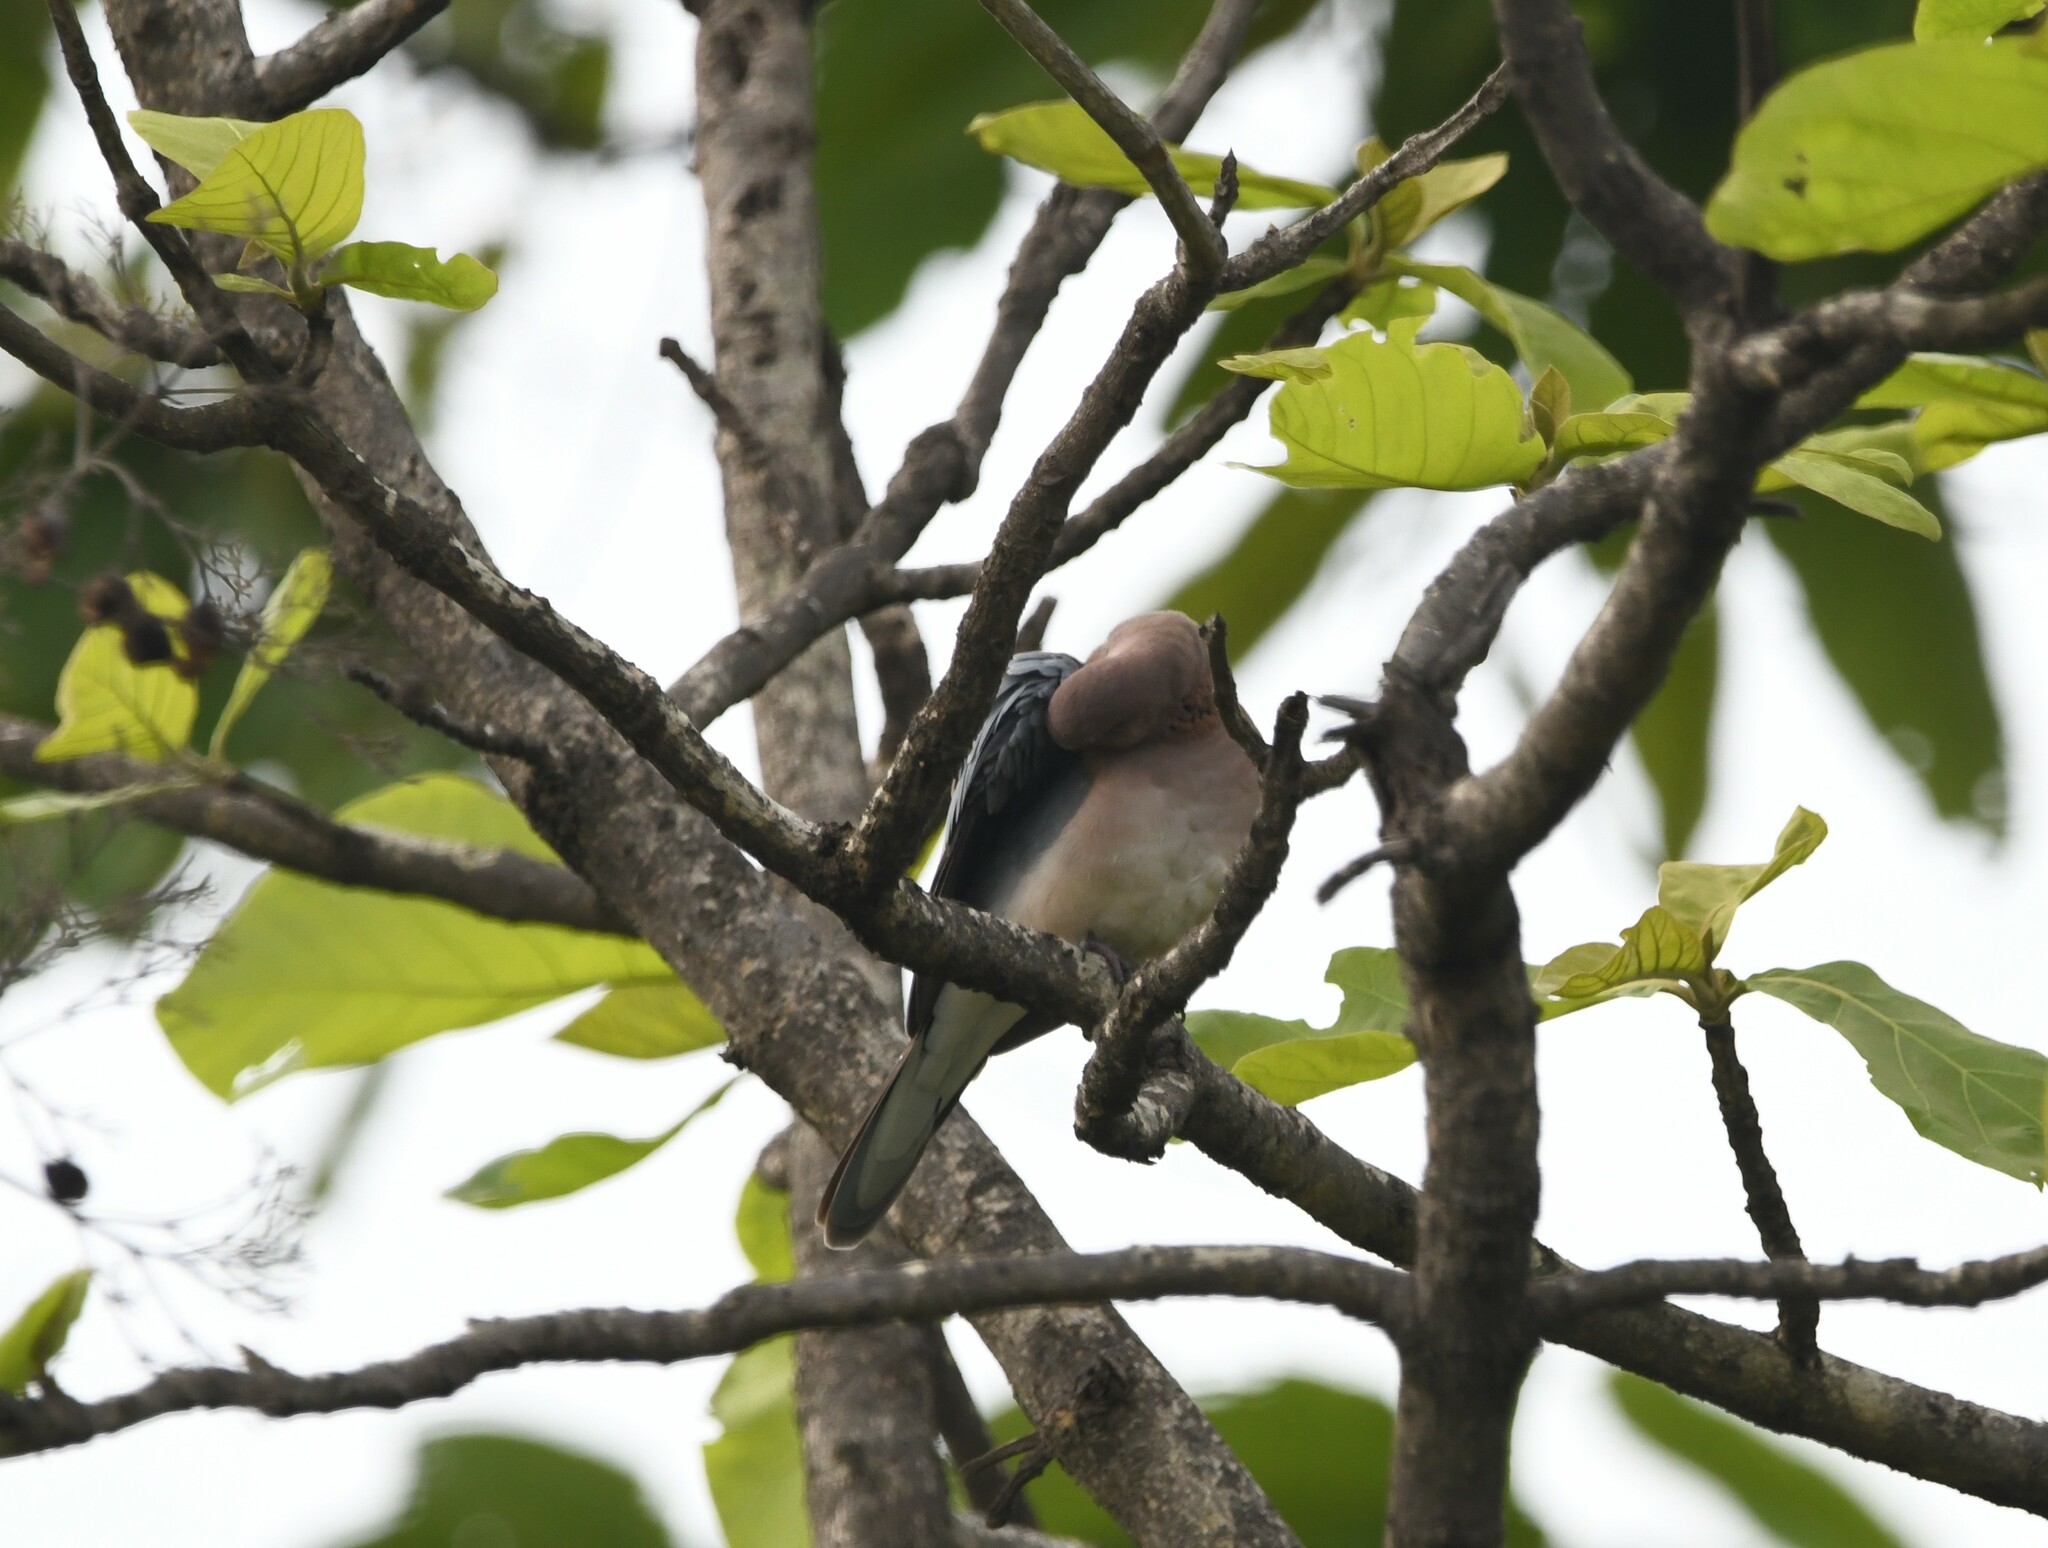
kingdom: Animalia
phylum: Chordata
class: Aves
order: Columbiformes
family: Columbidae
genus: Spilopelia
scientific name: Spilopelia senegalensis
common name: Laughing dove
